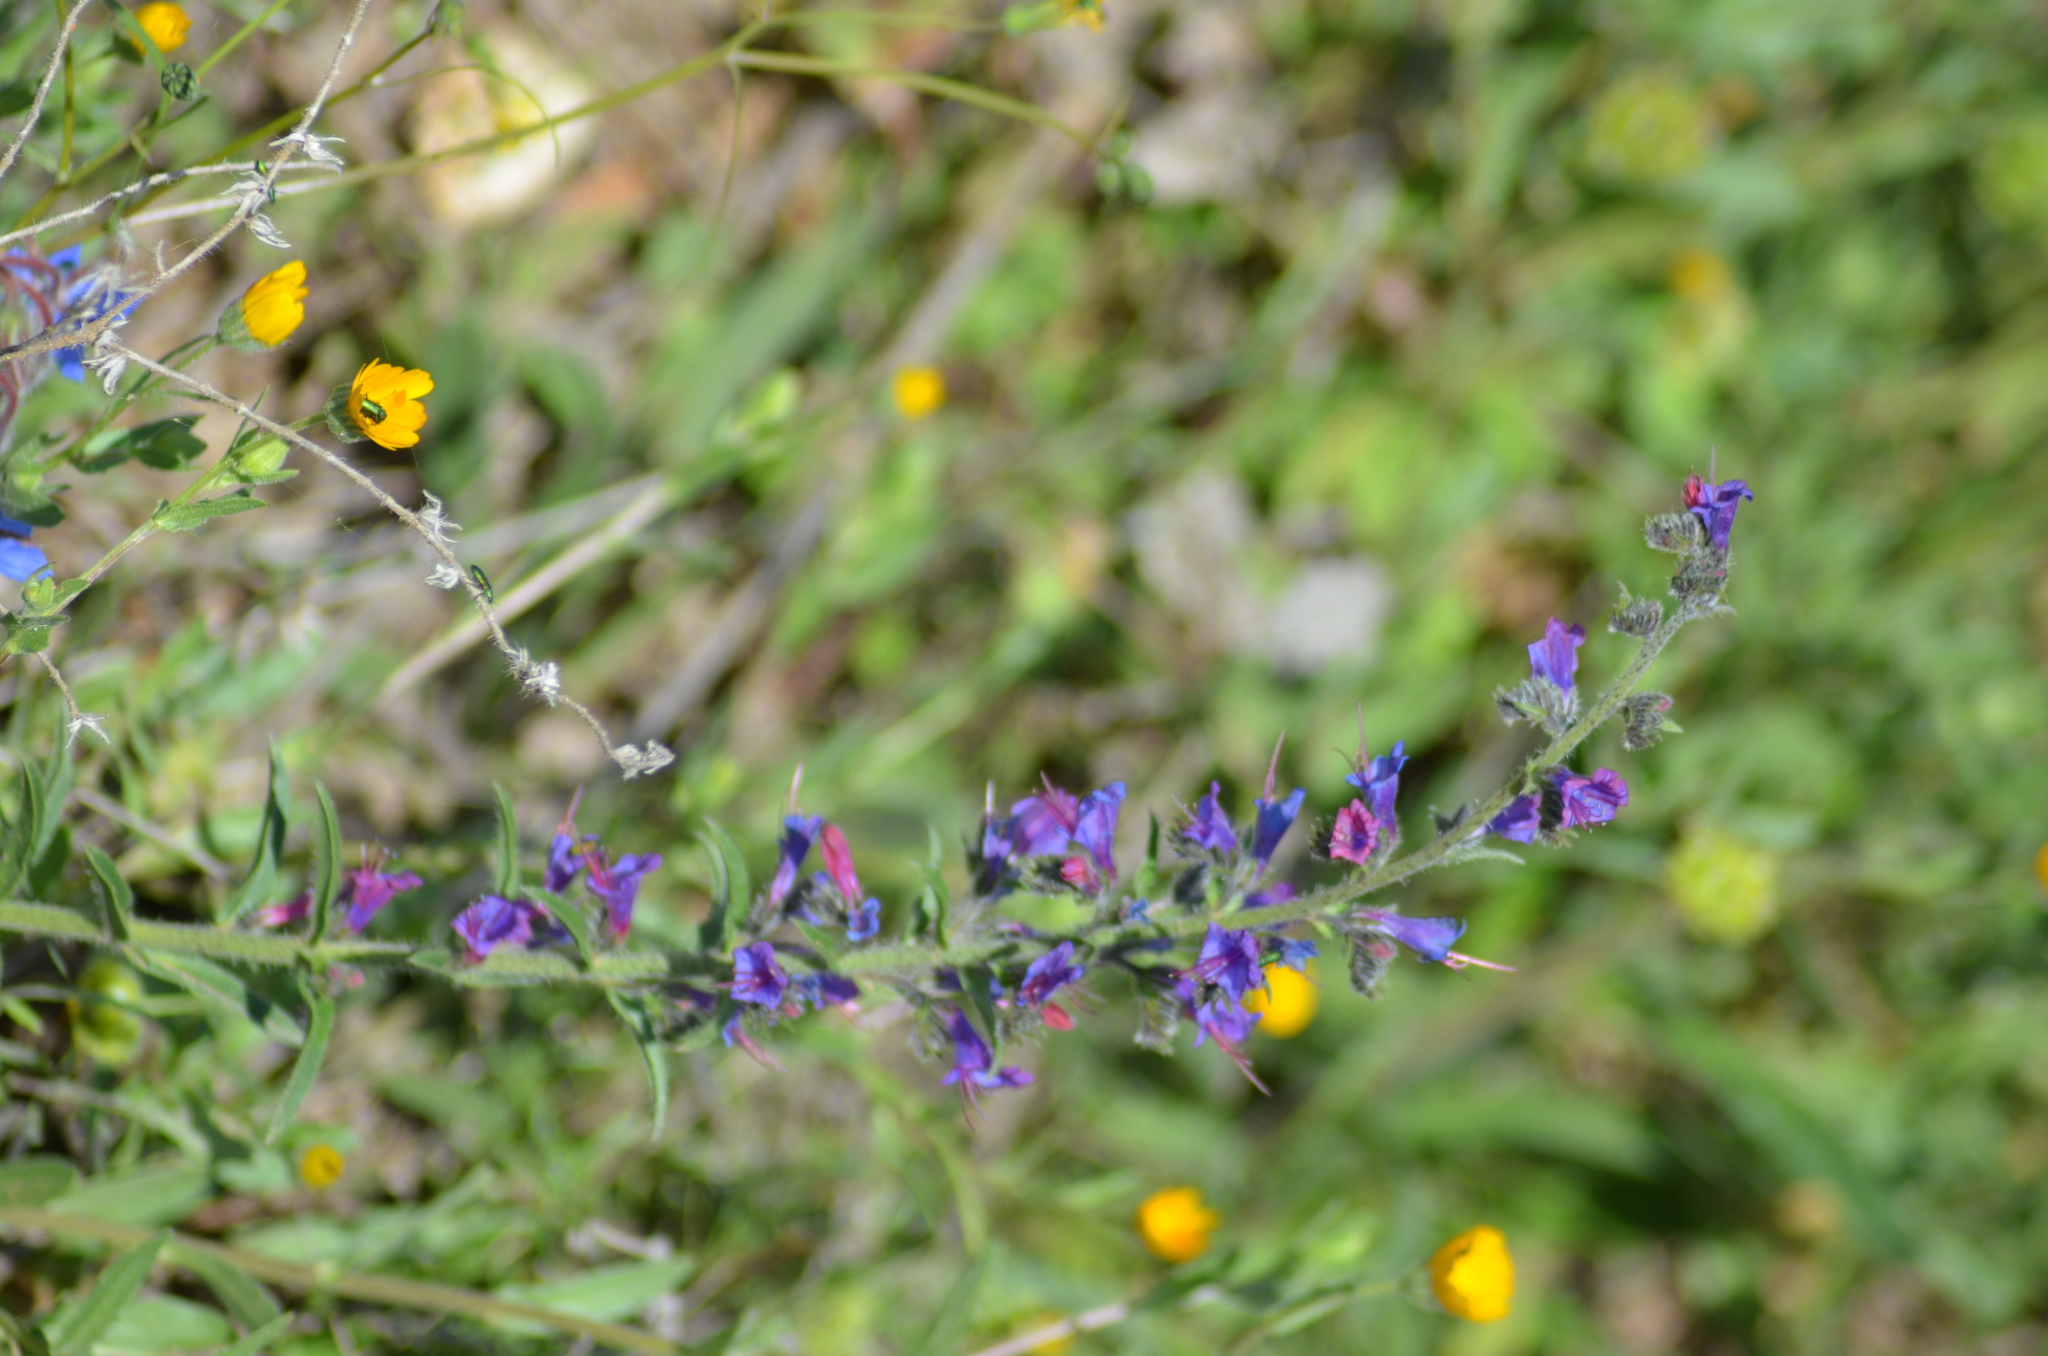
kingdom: Plantae
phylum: Tracheophyta
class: Magnoliopsida
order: Boraginales
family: Boraginaceae
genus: Echium
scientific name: Echium vulgare
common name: Common viper's bugloss
